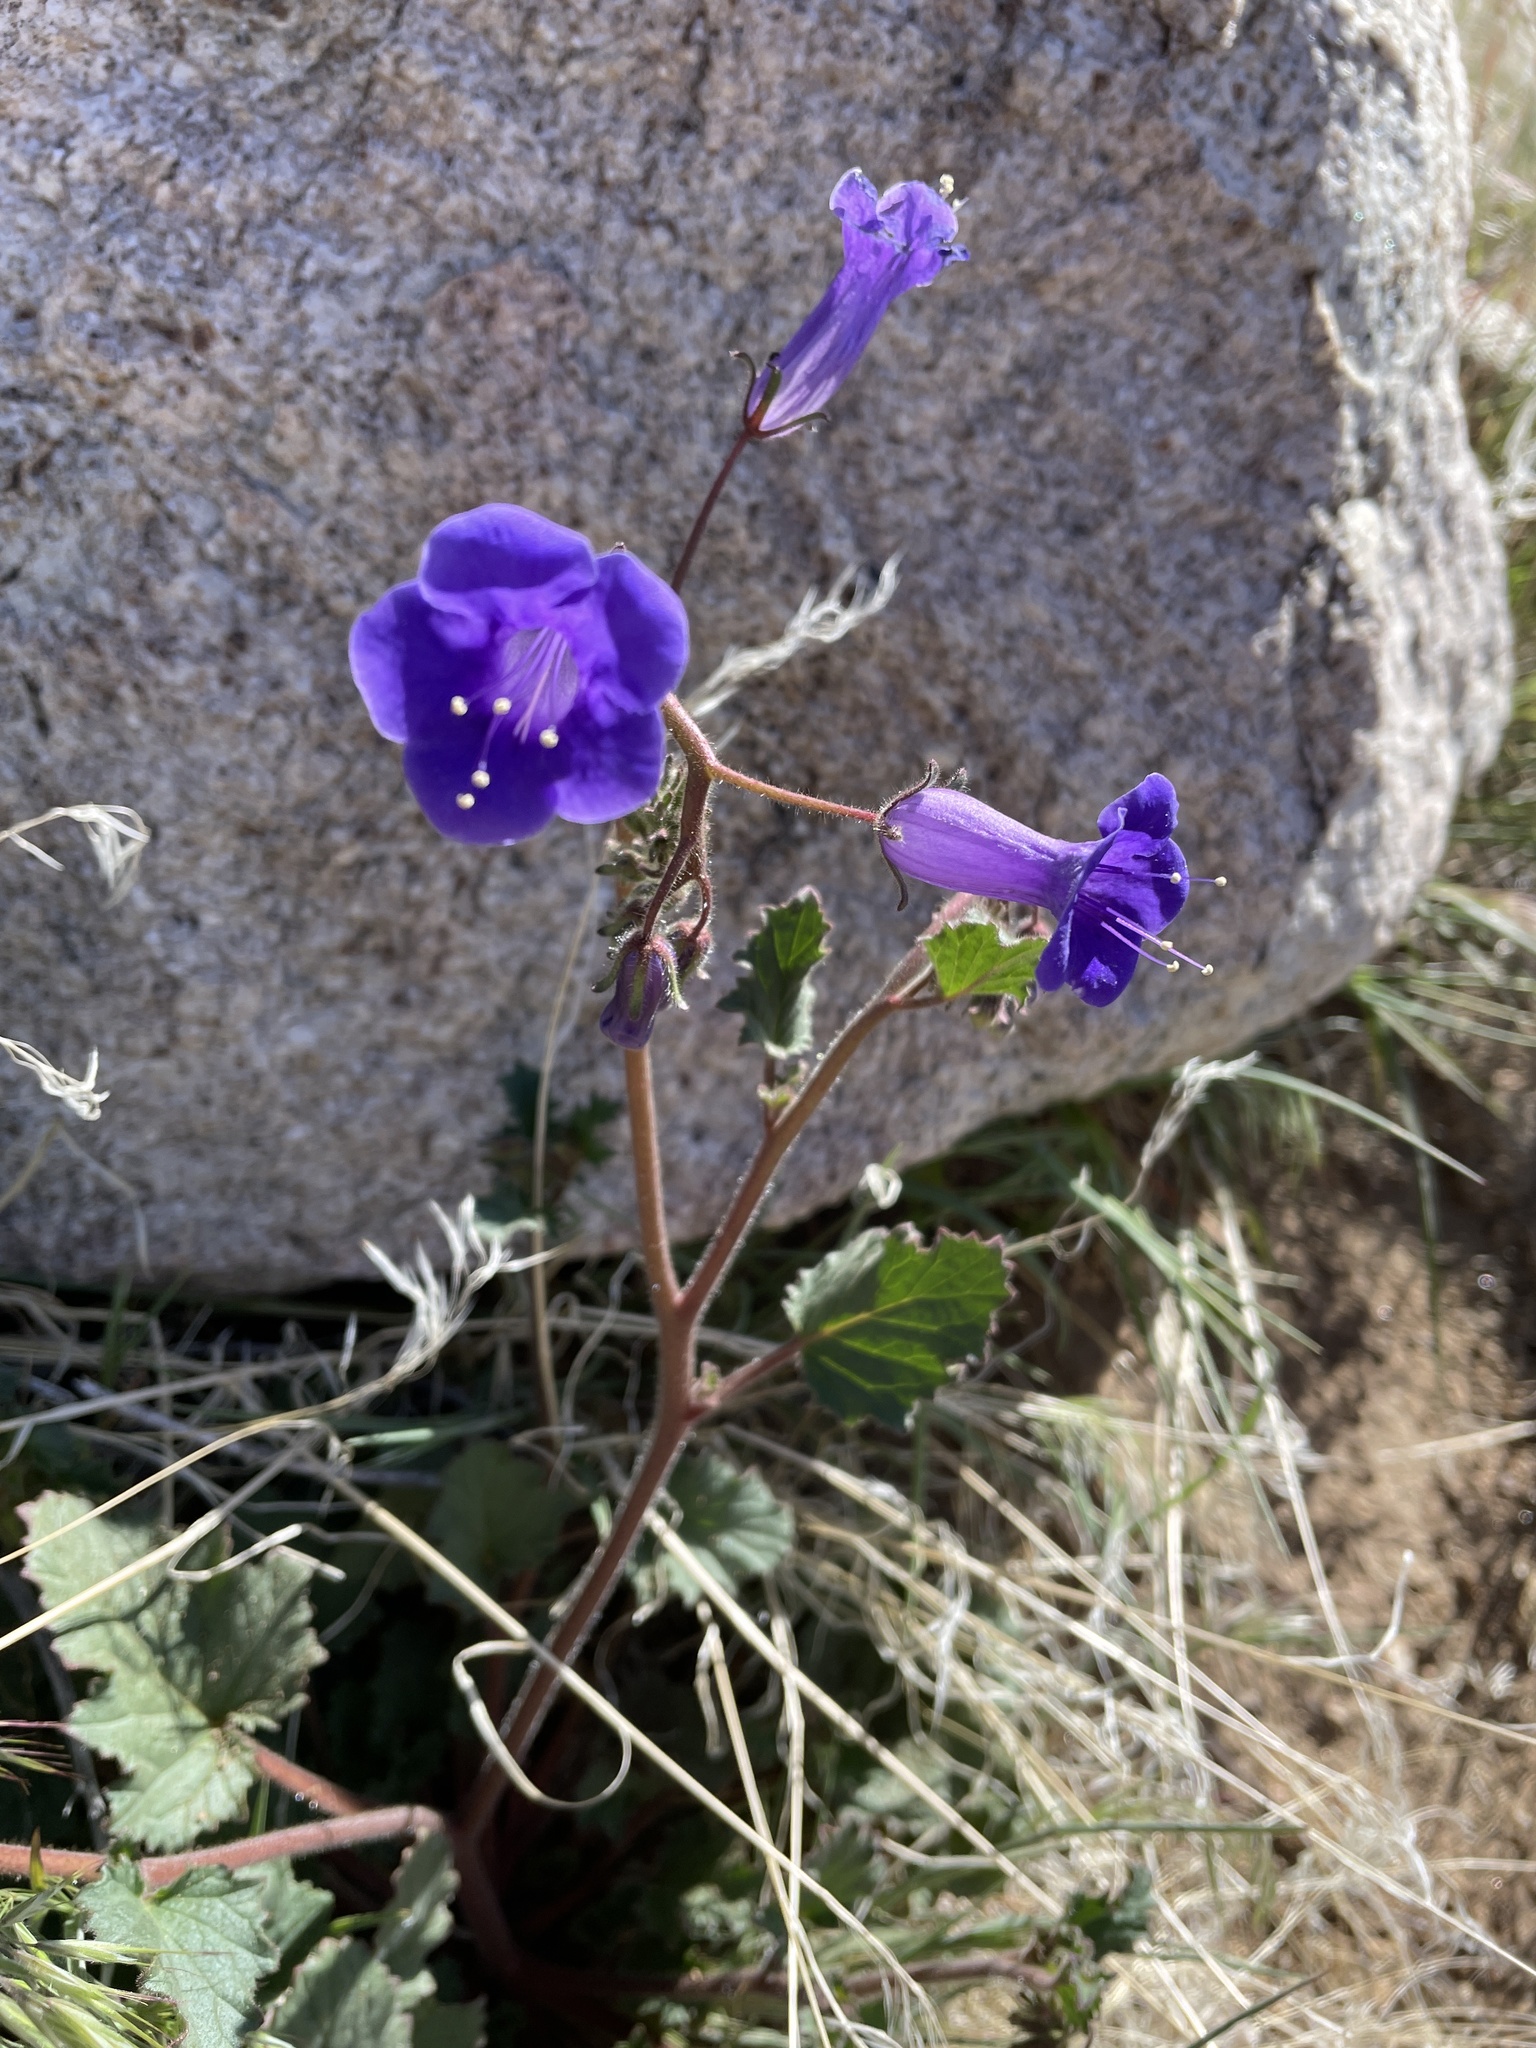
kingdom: Plantae
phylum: Tracheophyta
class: Magnoliopsida
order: Boraginales
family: Hydrophyllaceae
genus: Phacelia
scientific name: Phacelia minor
